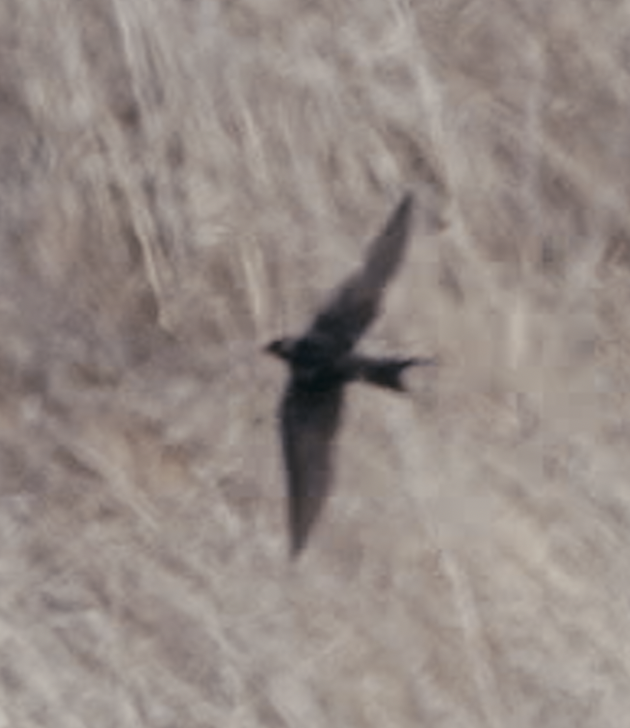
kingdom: Animalia
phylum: Chordata
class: Aves
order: Passeriformes
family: Hirundinidae
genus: Hirundo
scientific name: Hirundo rustica
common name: Barn swallow
